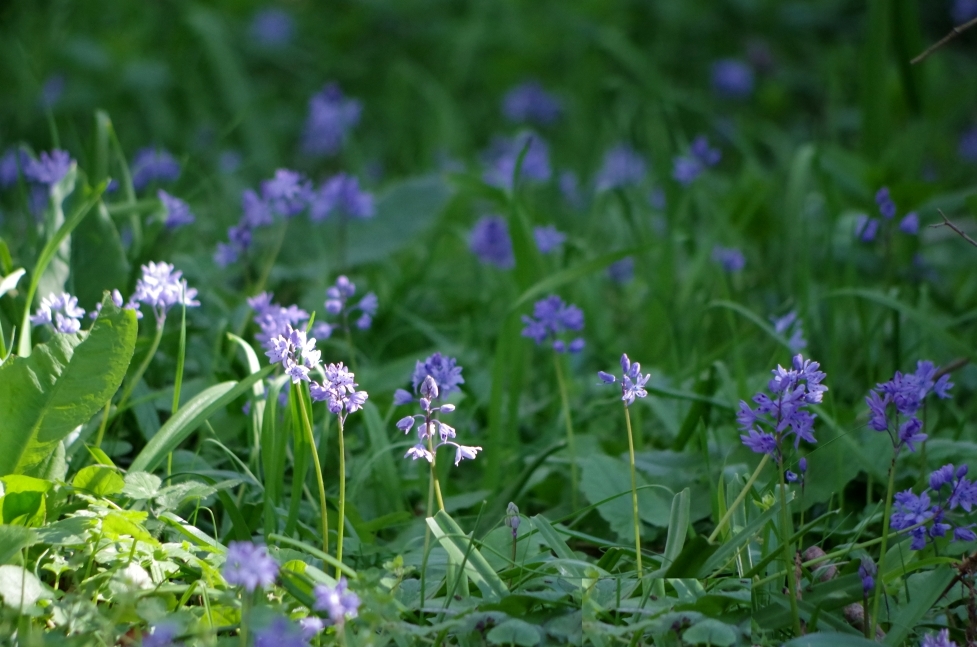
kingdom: Plantae
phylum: Tracheophyta
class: Liliopsida
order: Asparagales
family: Asparagaceae
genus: Scilla
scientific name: Scilla bithynica
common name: Turkish squill
